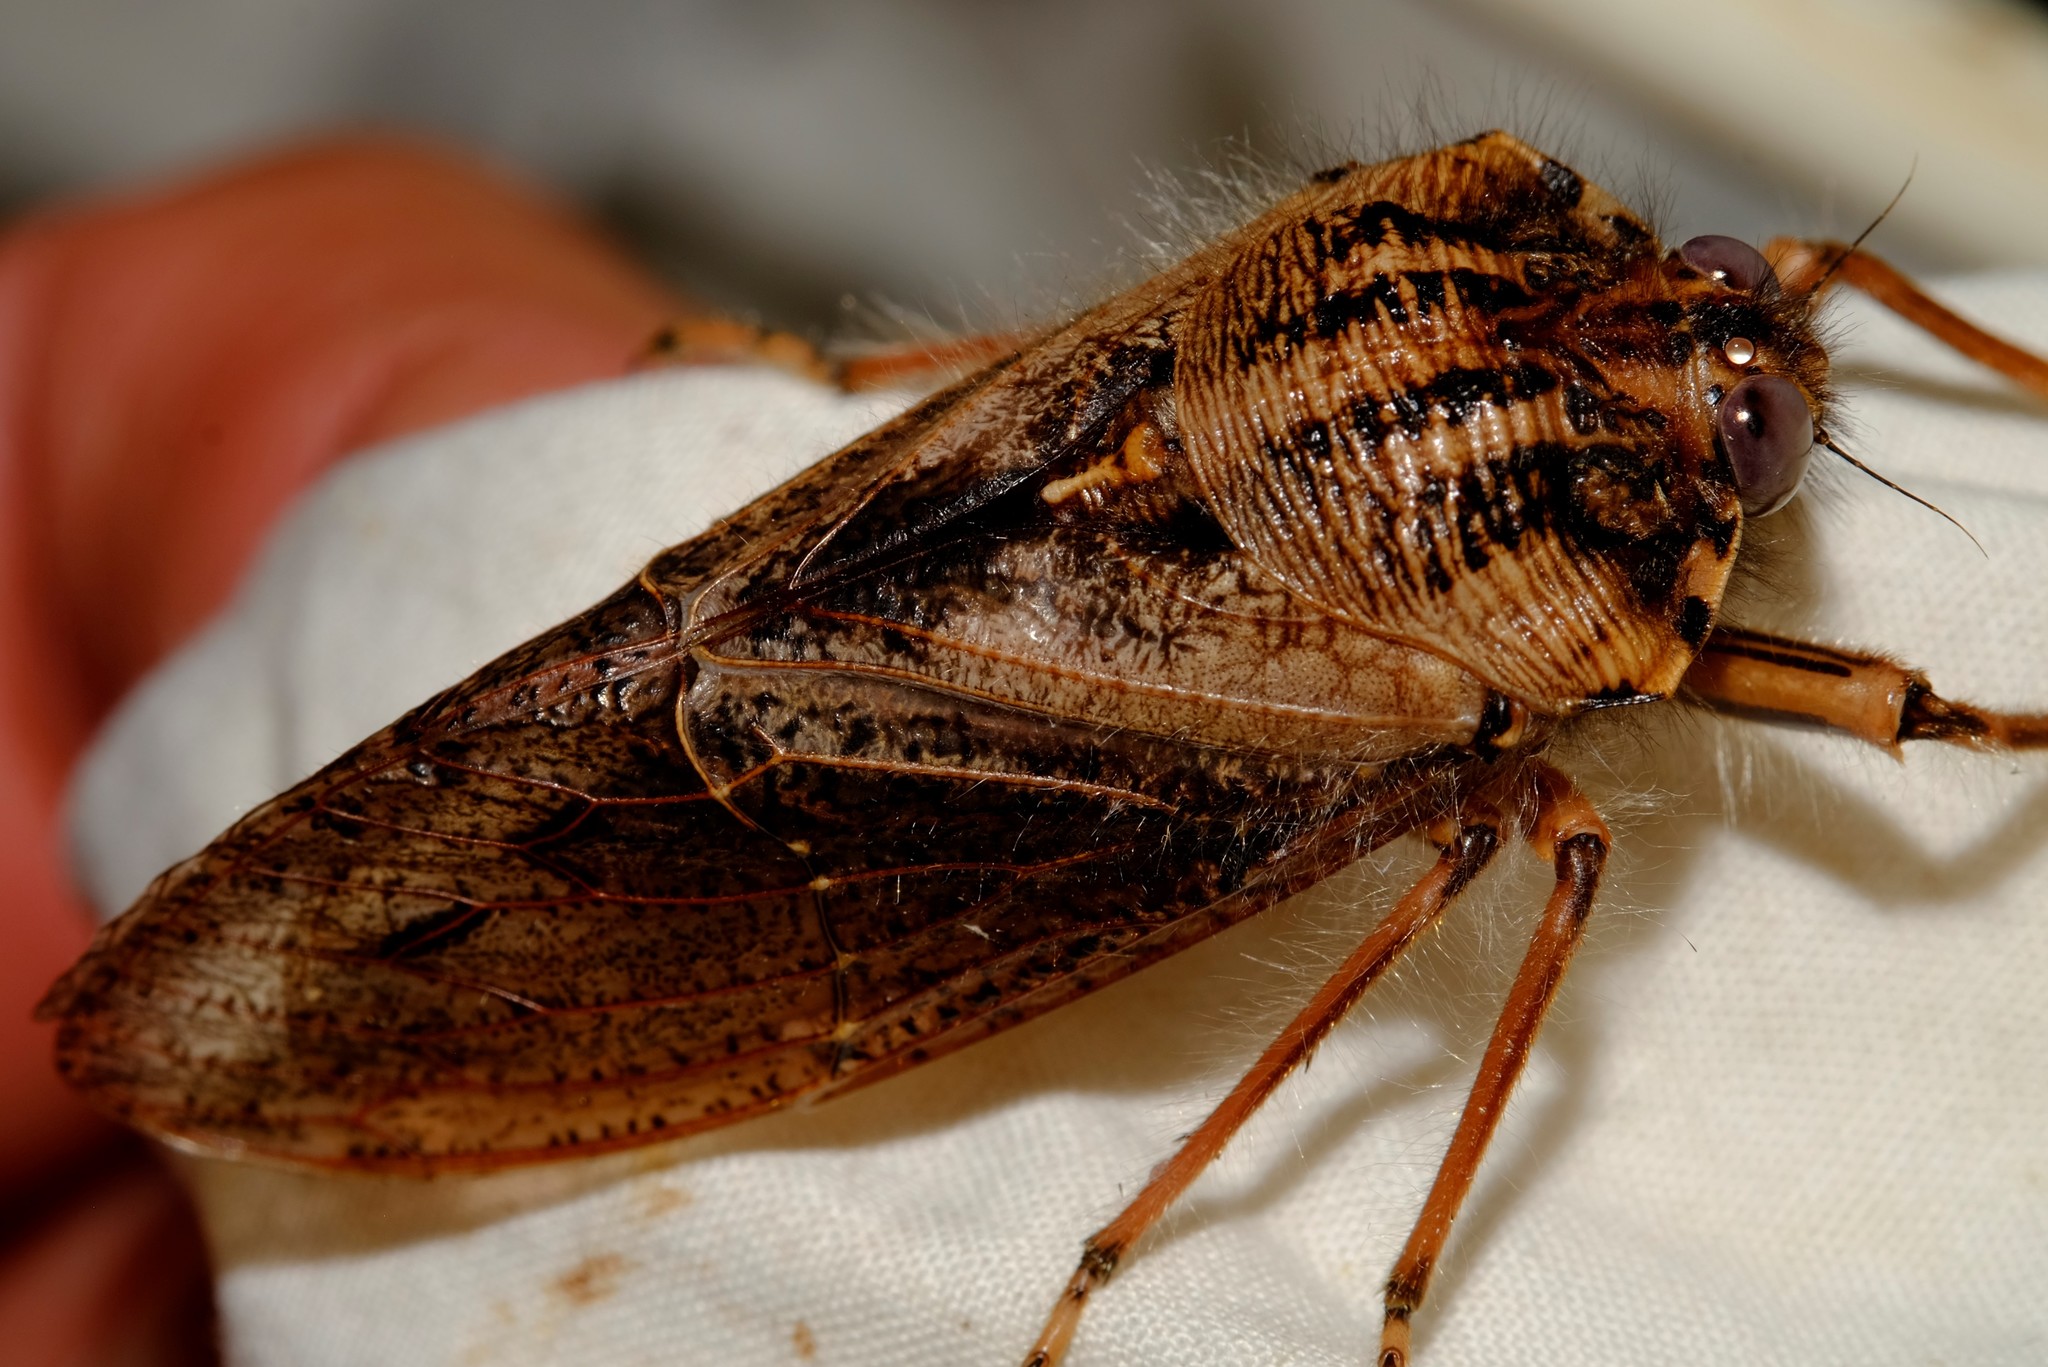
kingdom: Animalia
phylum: Arthropoda
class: Insecta
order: Hemiptera
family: Tettigarctidae
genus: Tettigarcta
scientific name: Tettigarcta crinita
